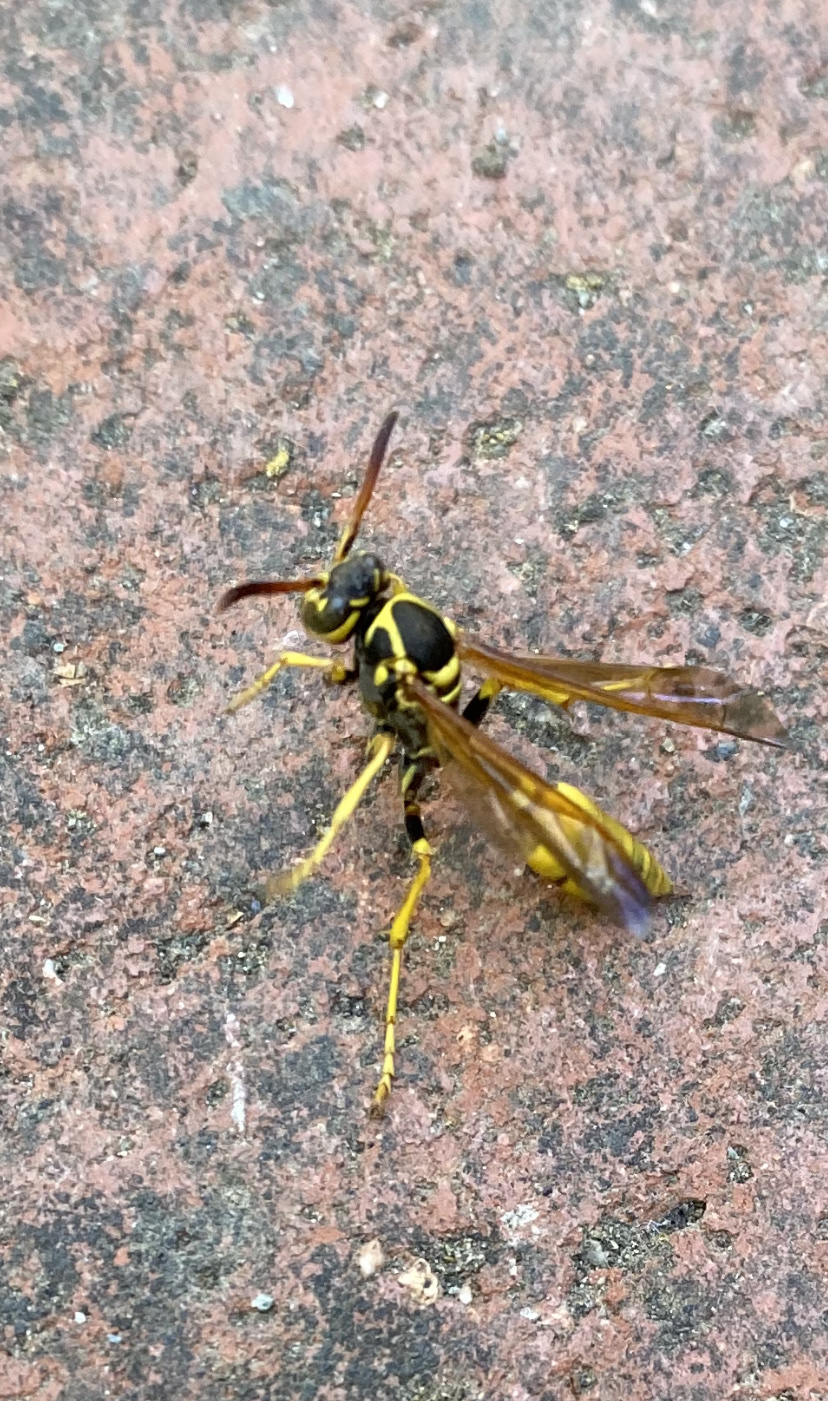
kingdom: Animalia
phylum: Arthropoda
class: Insecta
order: Hymenoptera
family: Vespidae
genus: Mischocyttarus
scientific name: Mischocyttarus flavitarsis
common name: Wasp
